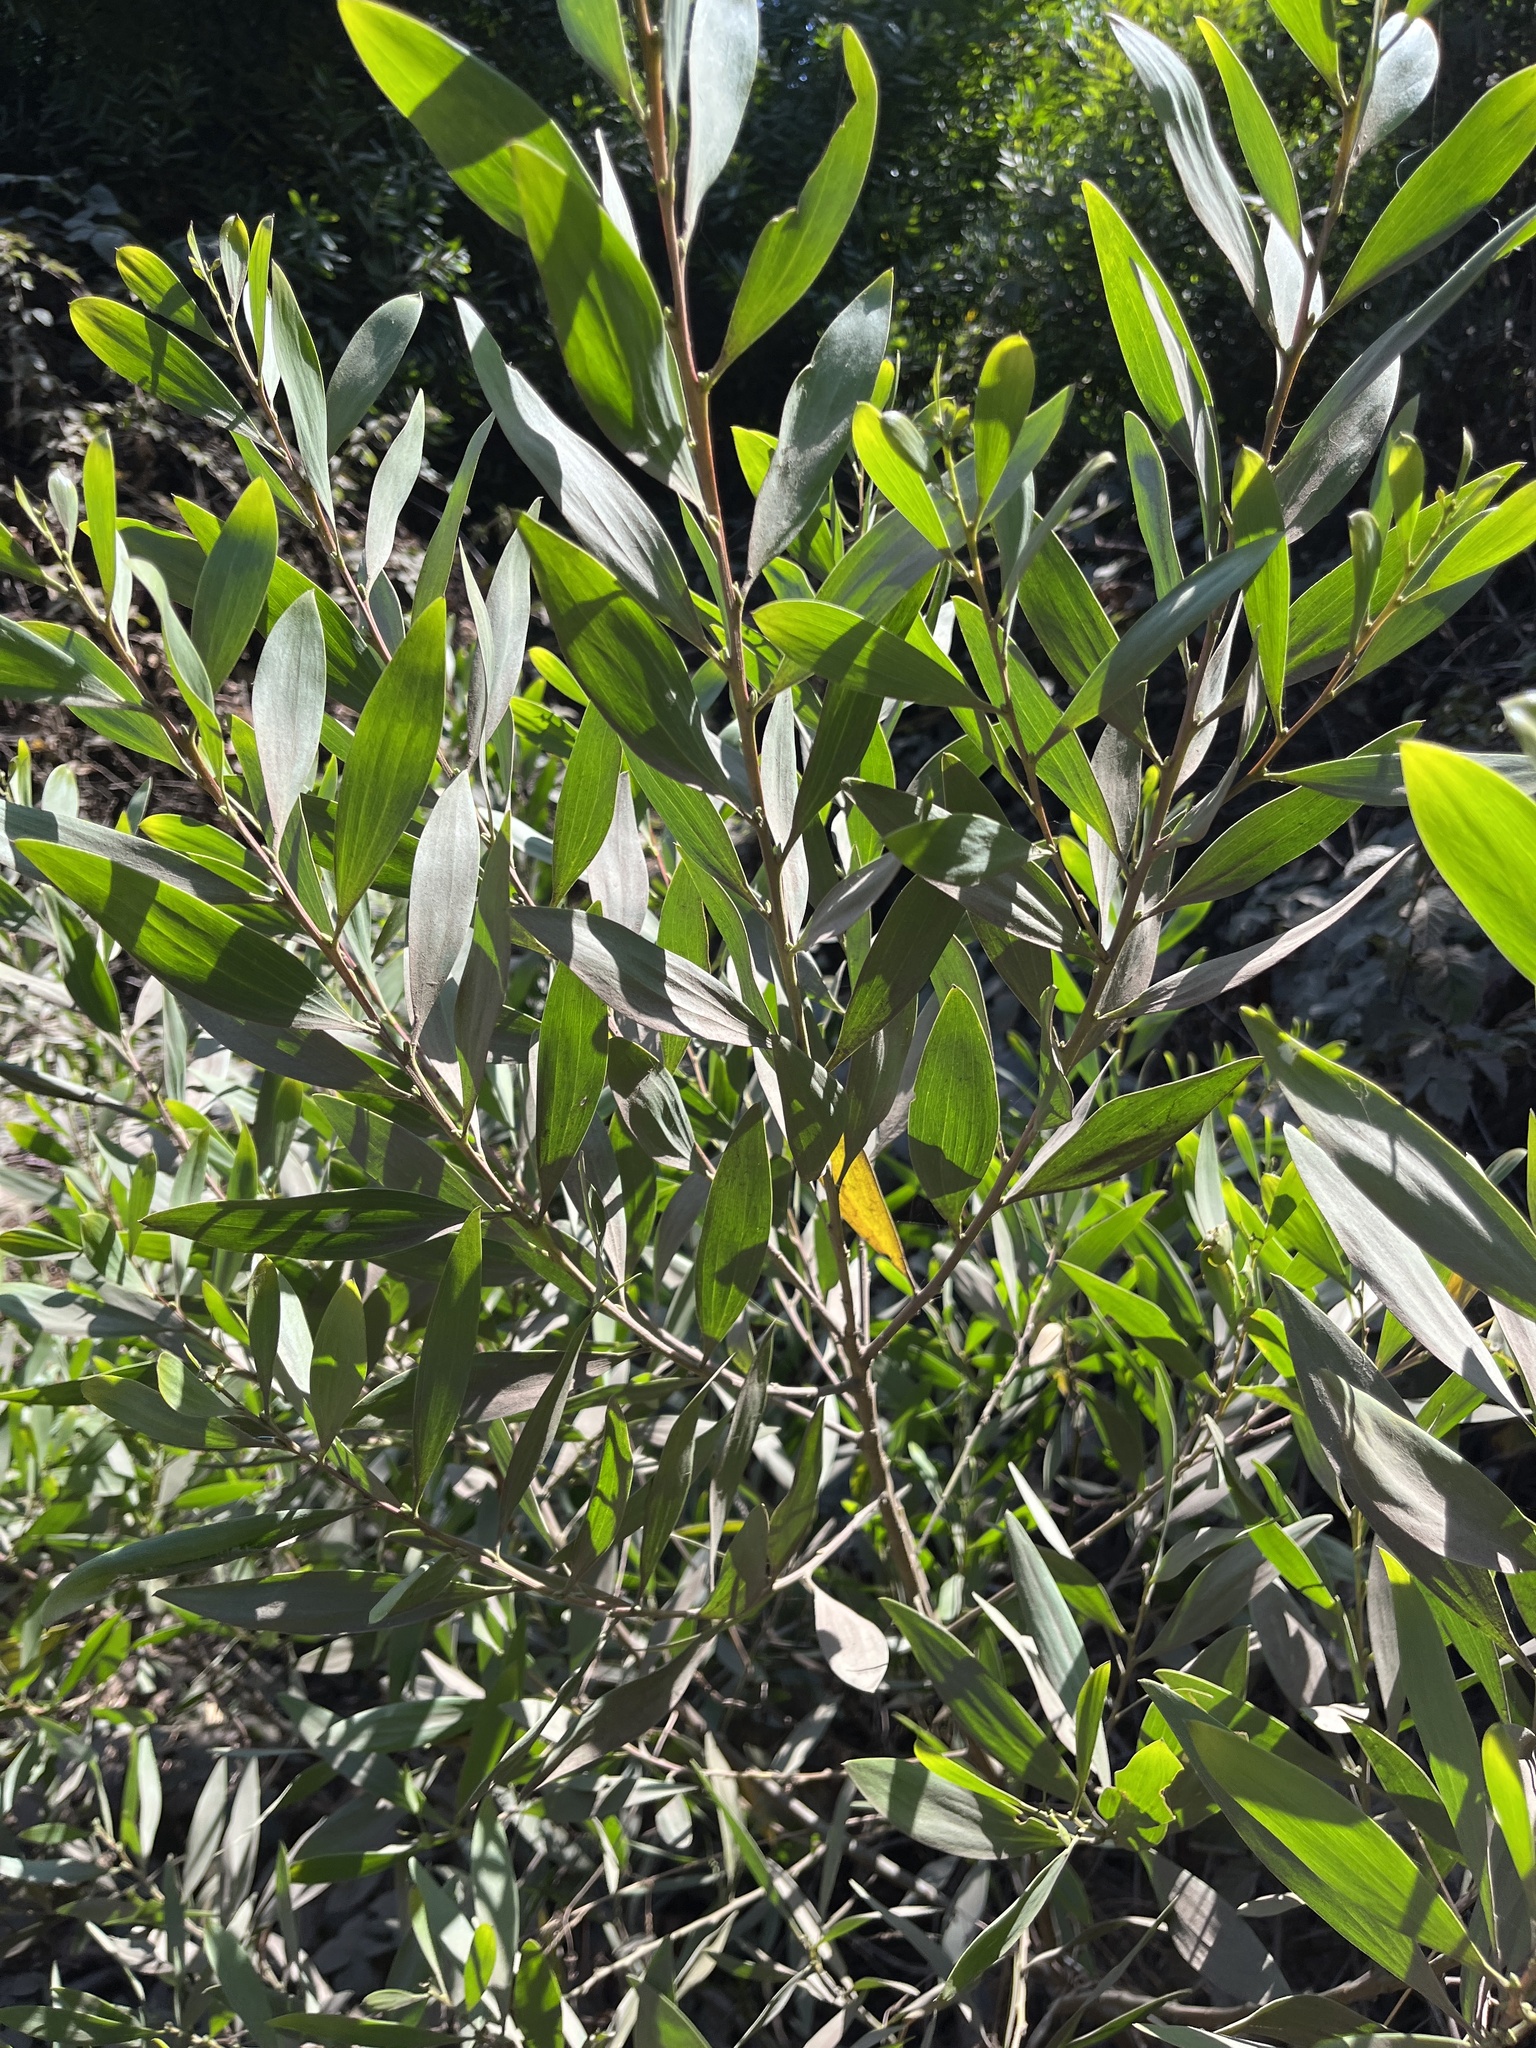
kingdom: Plantae
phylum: Tracheophyta
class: Magnoliopsida
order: Fabales
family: Fabaceae
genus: Acacia
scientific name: Acacia longifolia
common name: Sydney golden wattle
